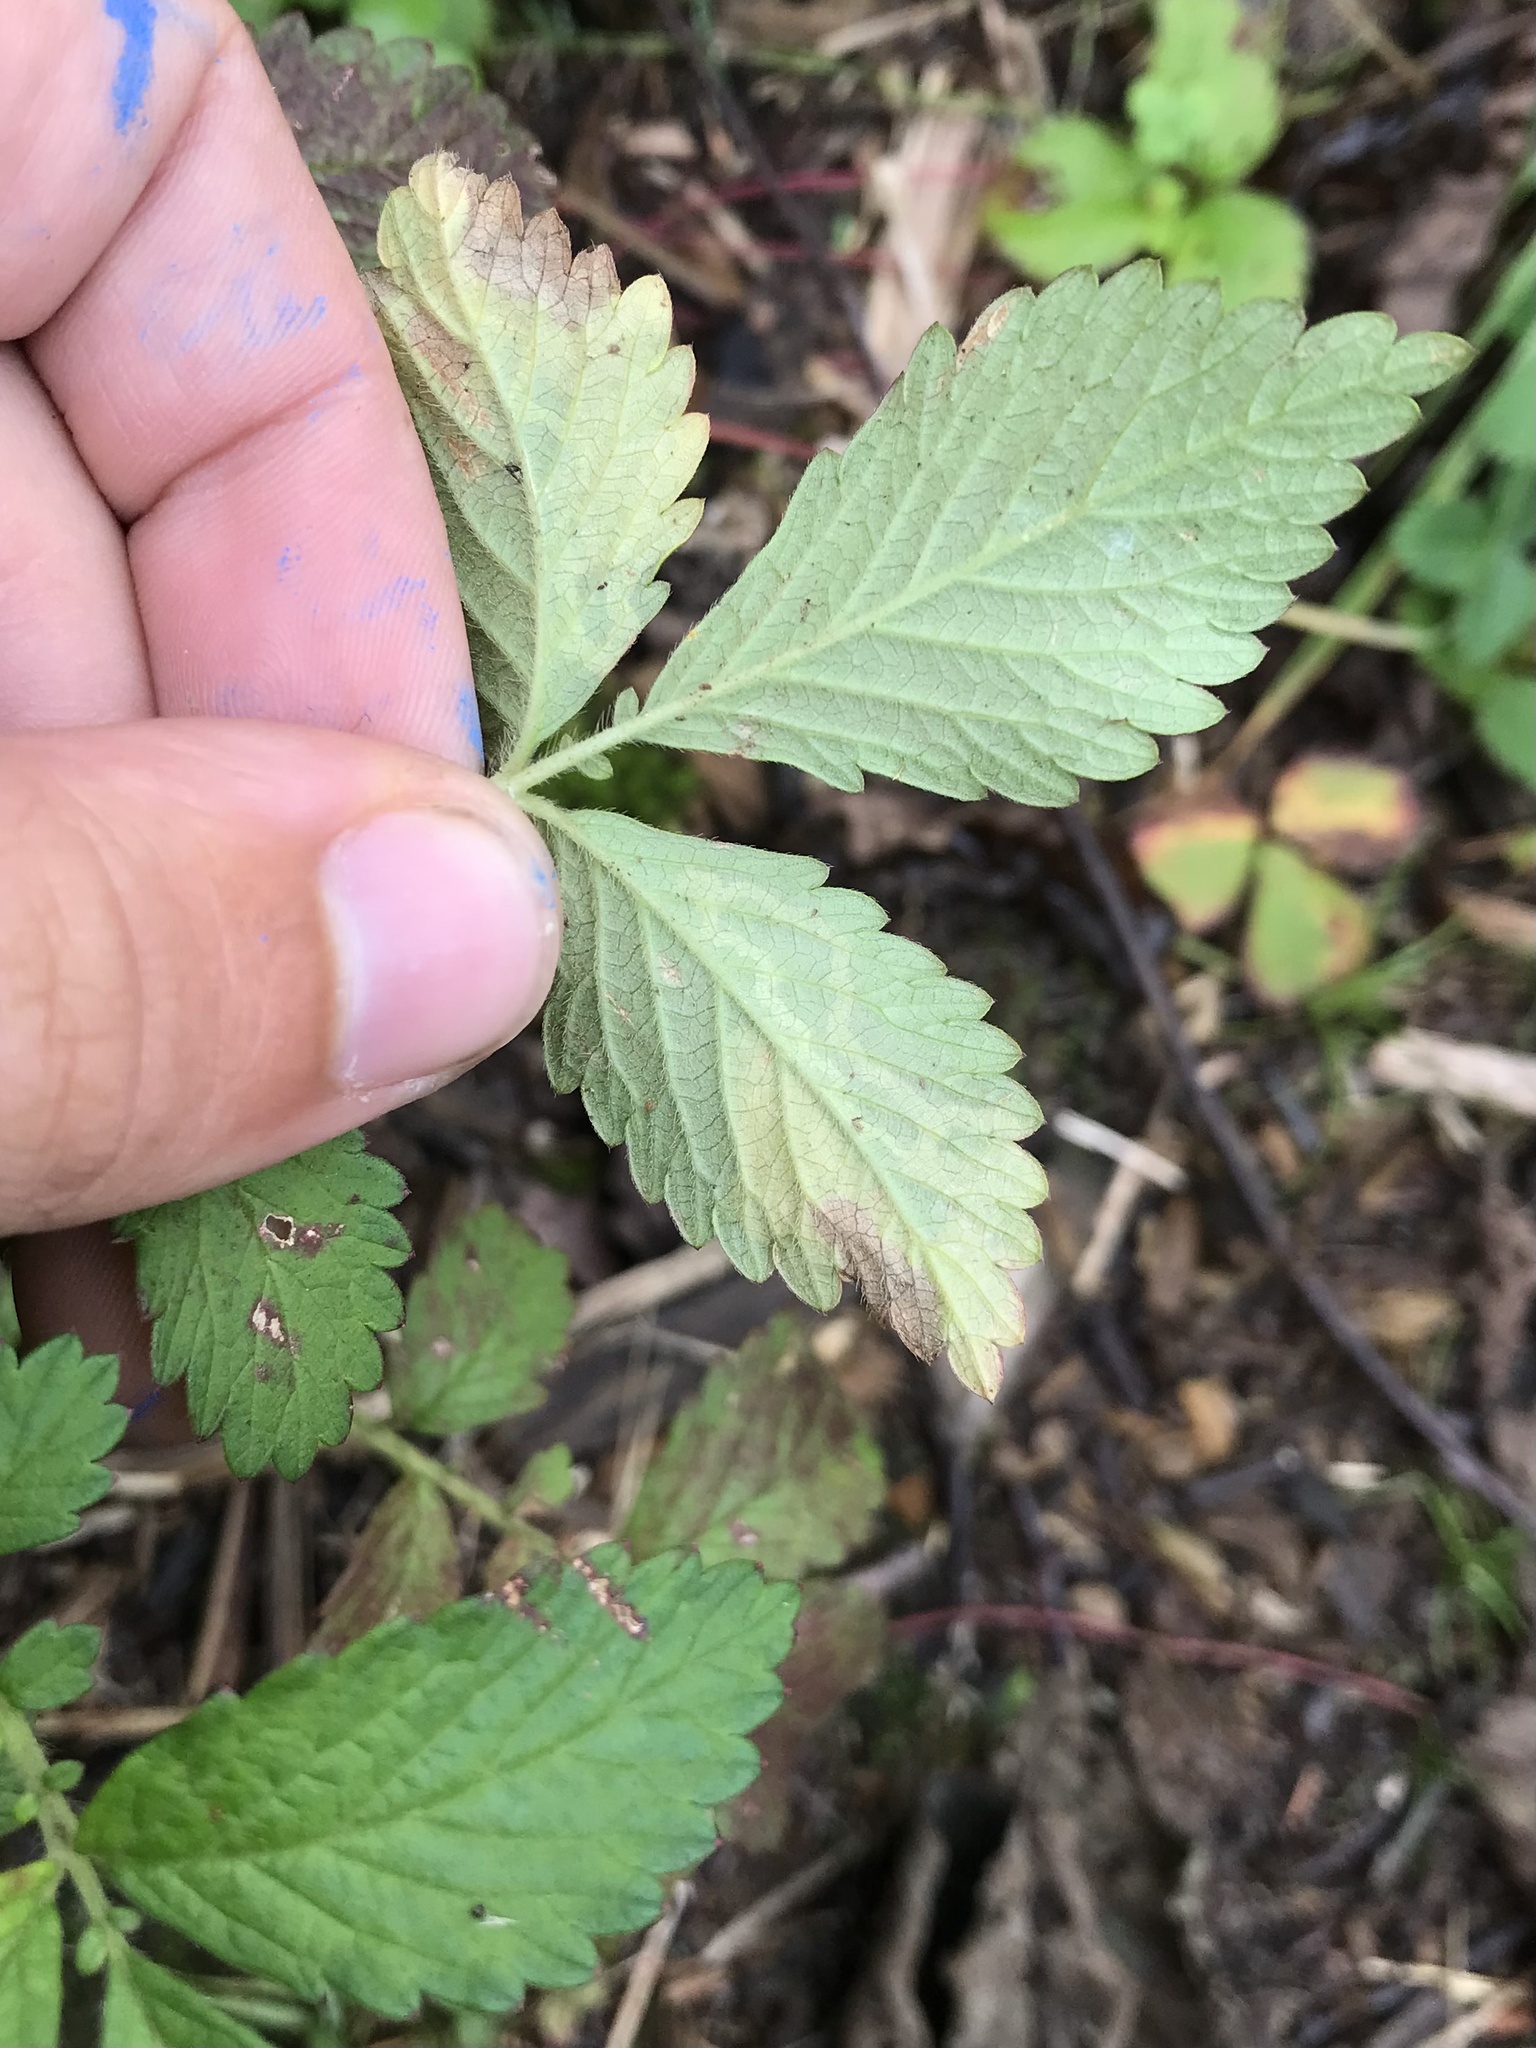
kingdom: Animalia
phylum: Arthropoda
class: Insecta
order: Diptera
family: Agromyzidae
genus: Agromyza
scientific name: Agromyza idaeiana
